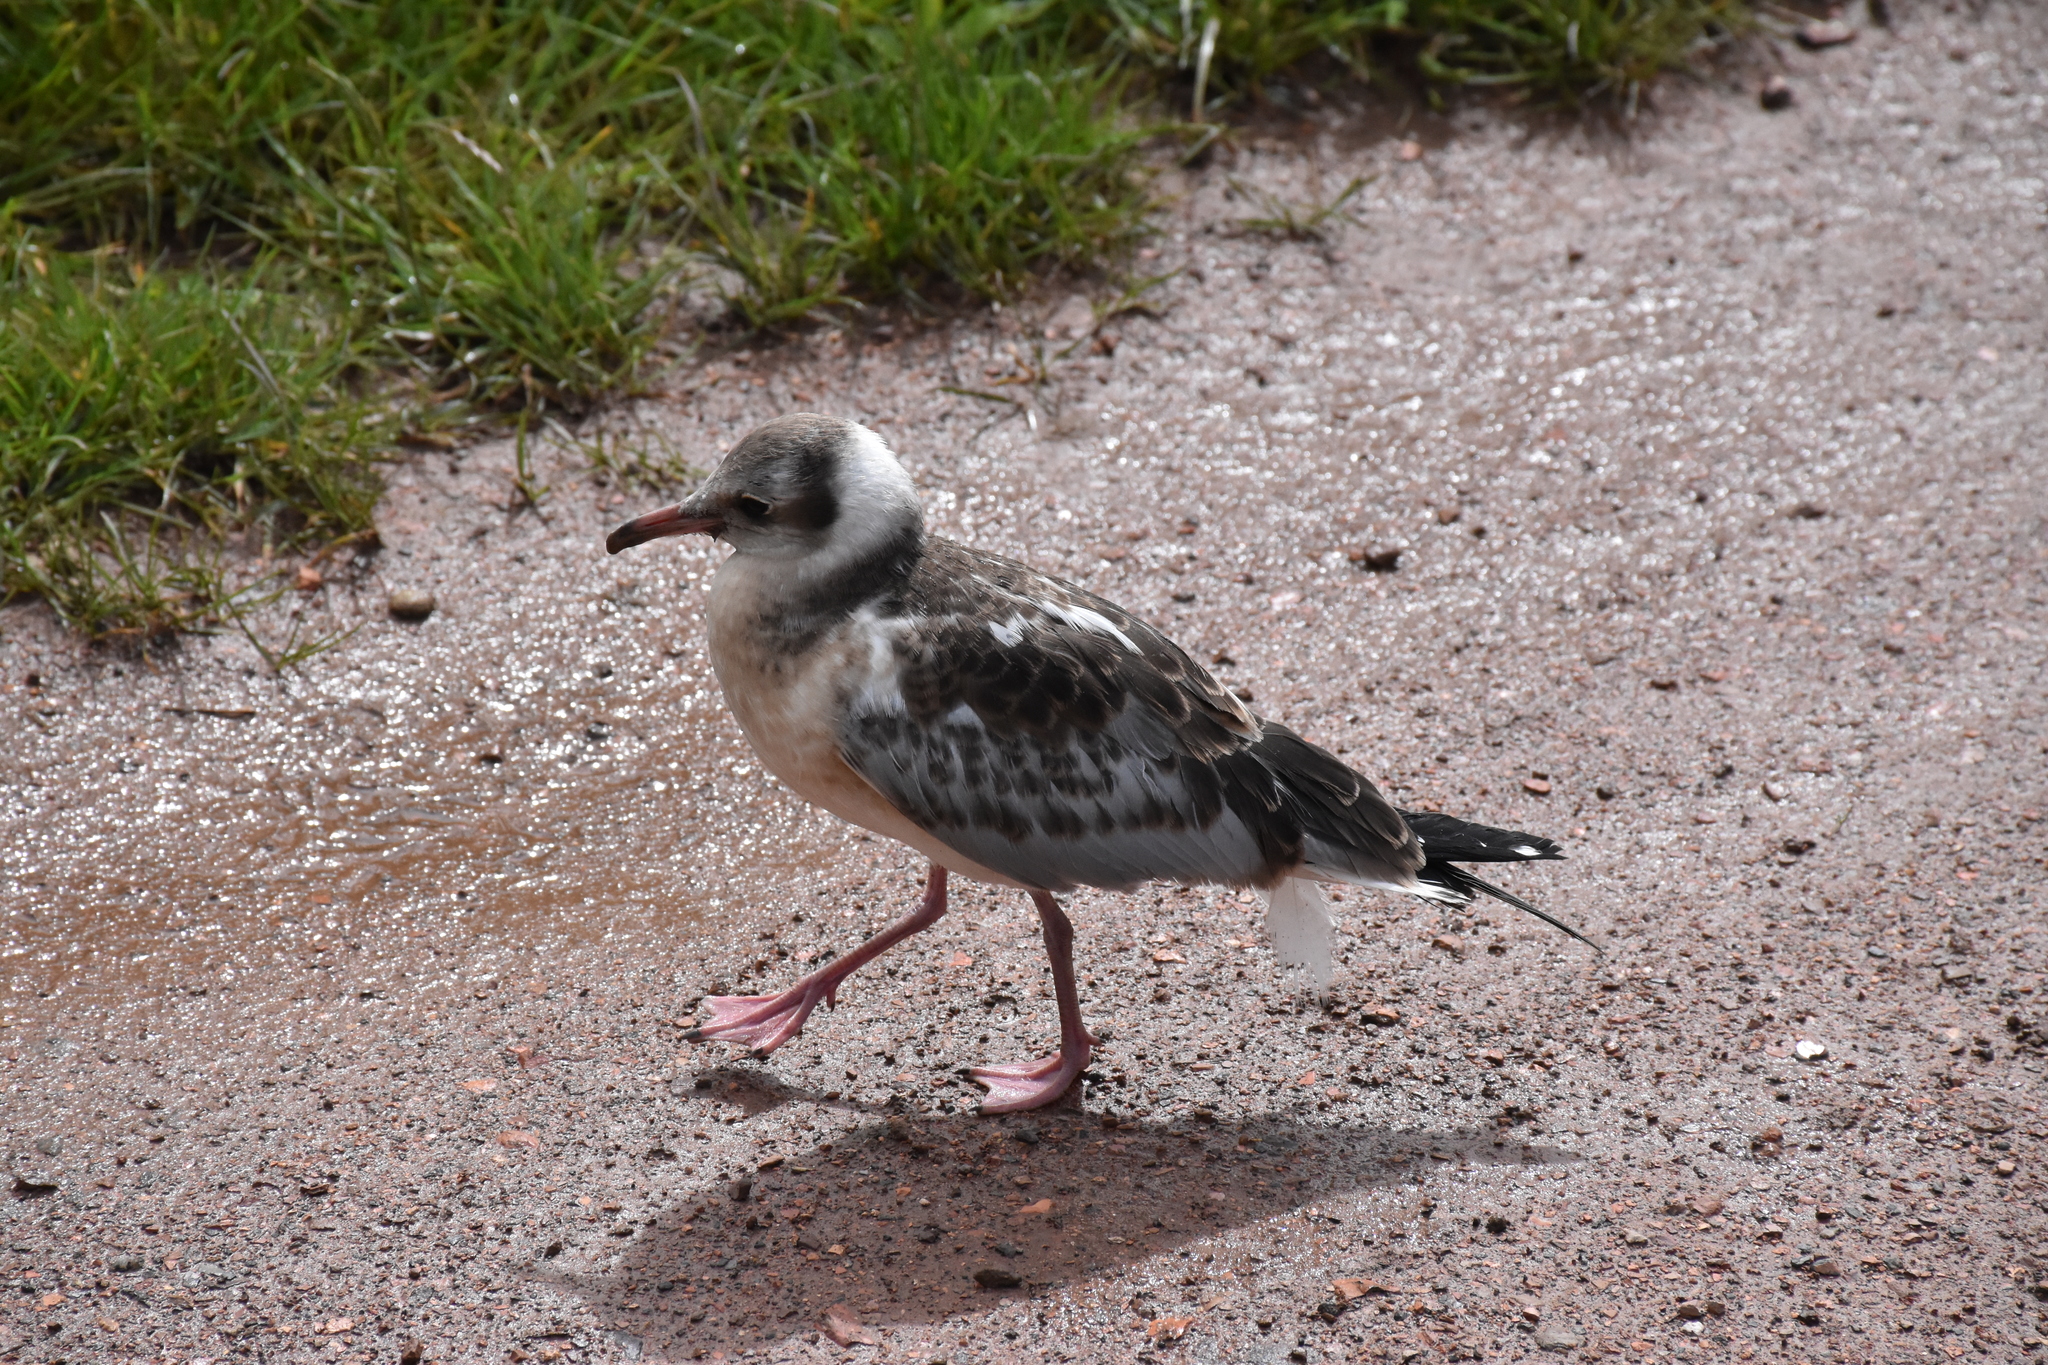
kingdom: Animalia
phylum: Chordata
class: Aves
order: Charadriiformes
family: Laridae
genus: Chroicocephalus
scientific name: Chroicocephalus ridibundus
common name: Black-headed gull
